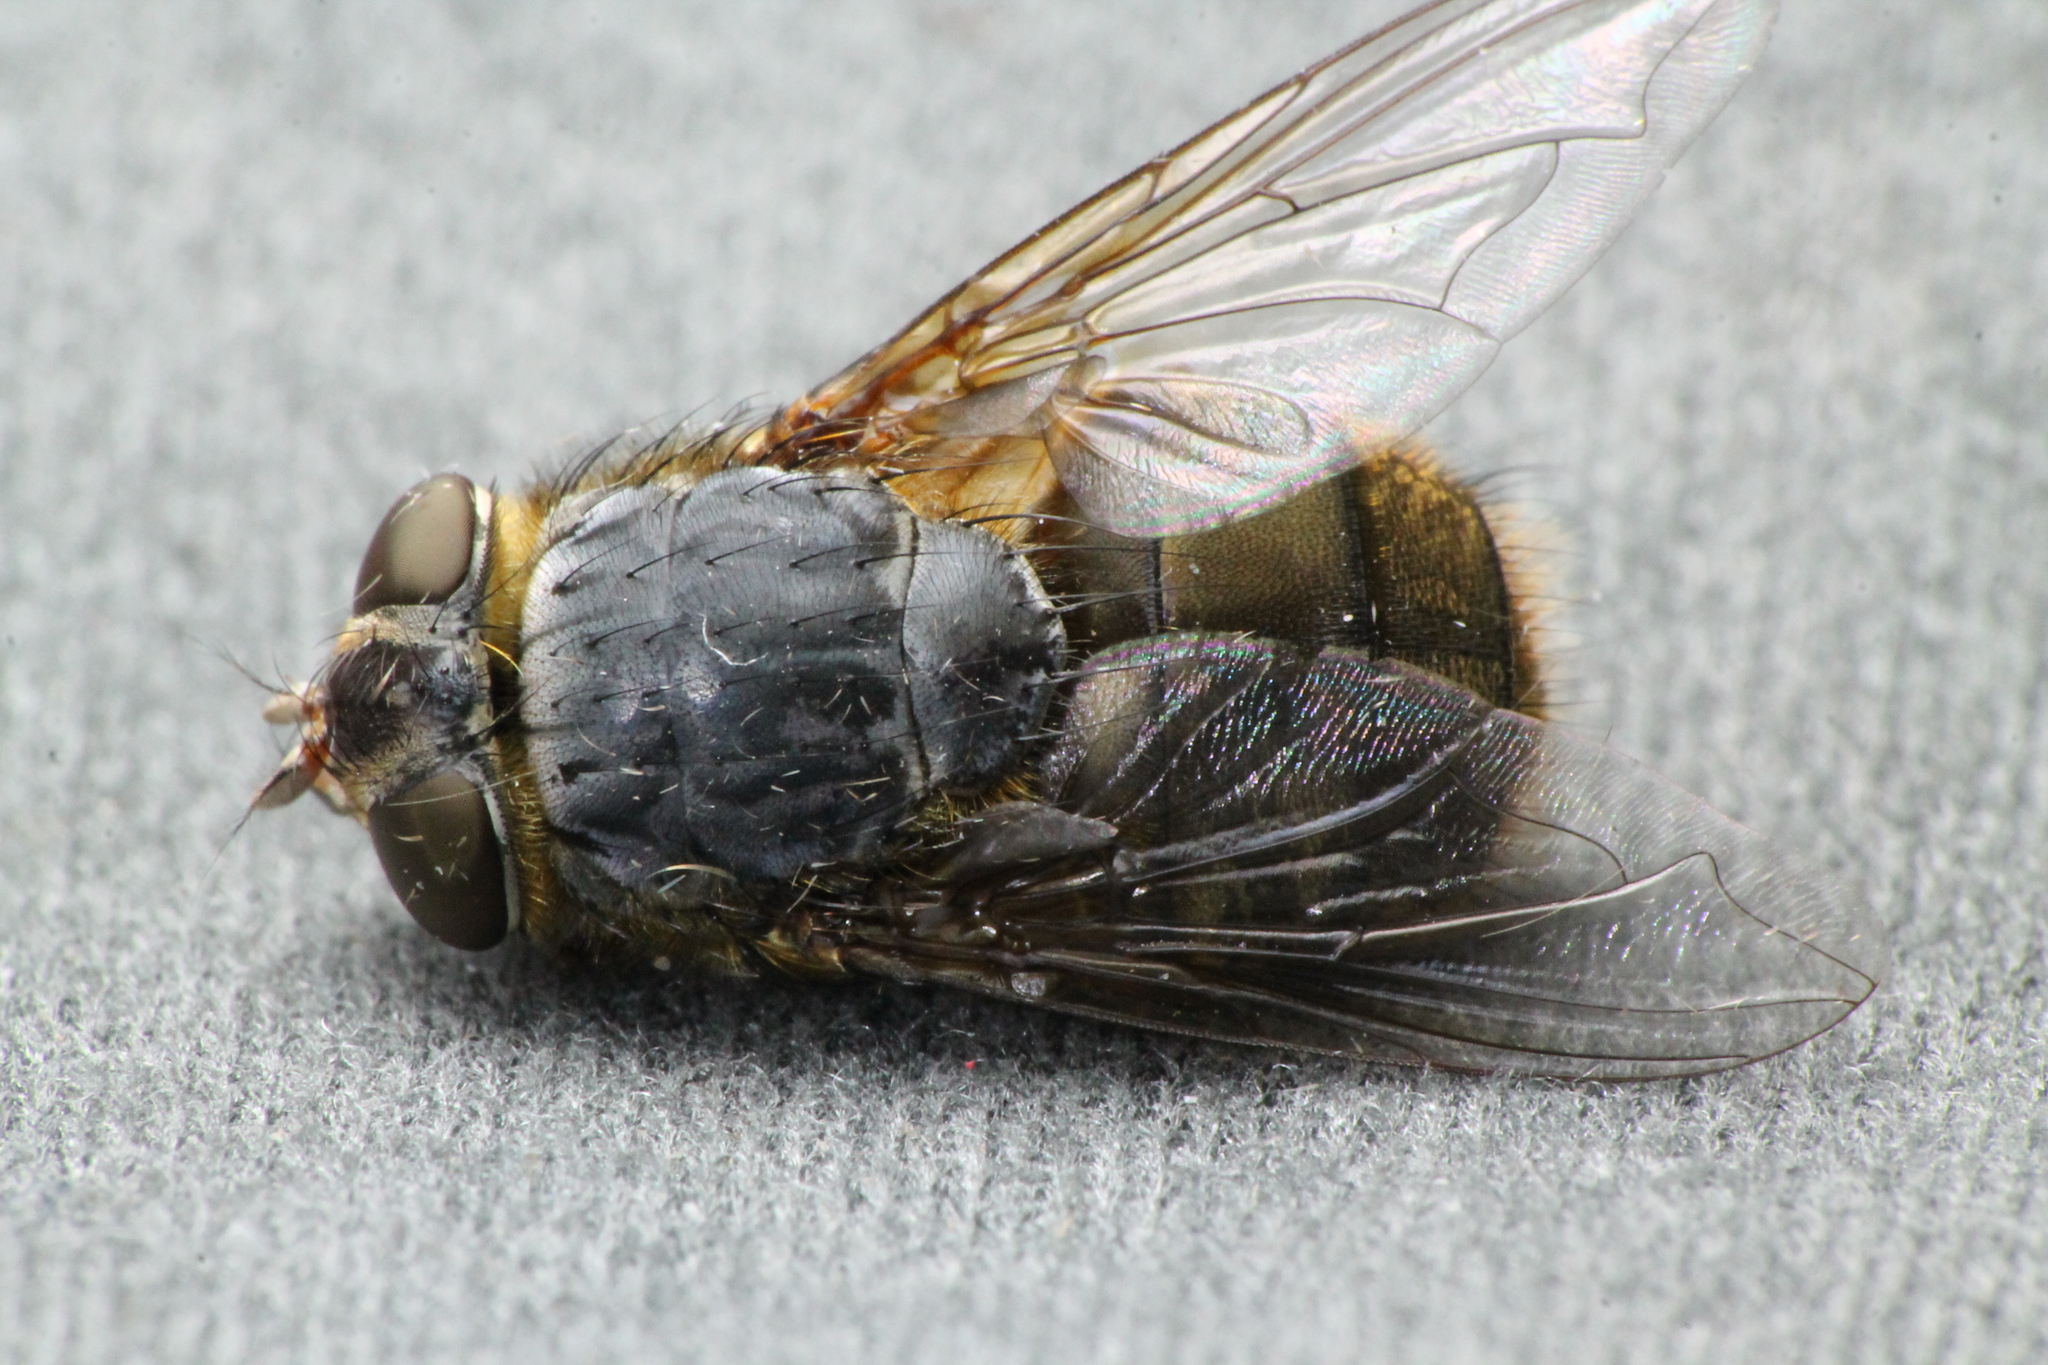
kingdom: Animalia
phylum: Arthropoda
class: Insecta
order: Diptera
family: Calliphoridae
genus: Calliphora
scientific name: Calliphora stygia
